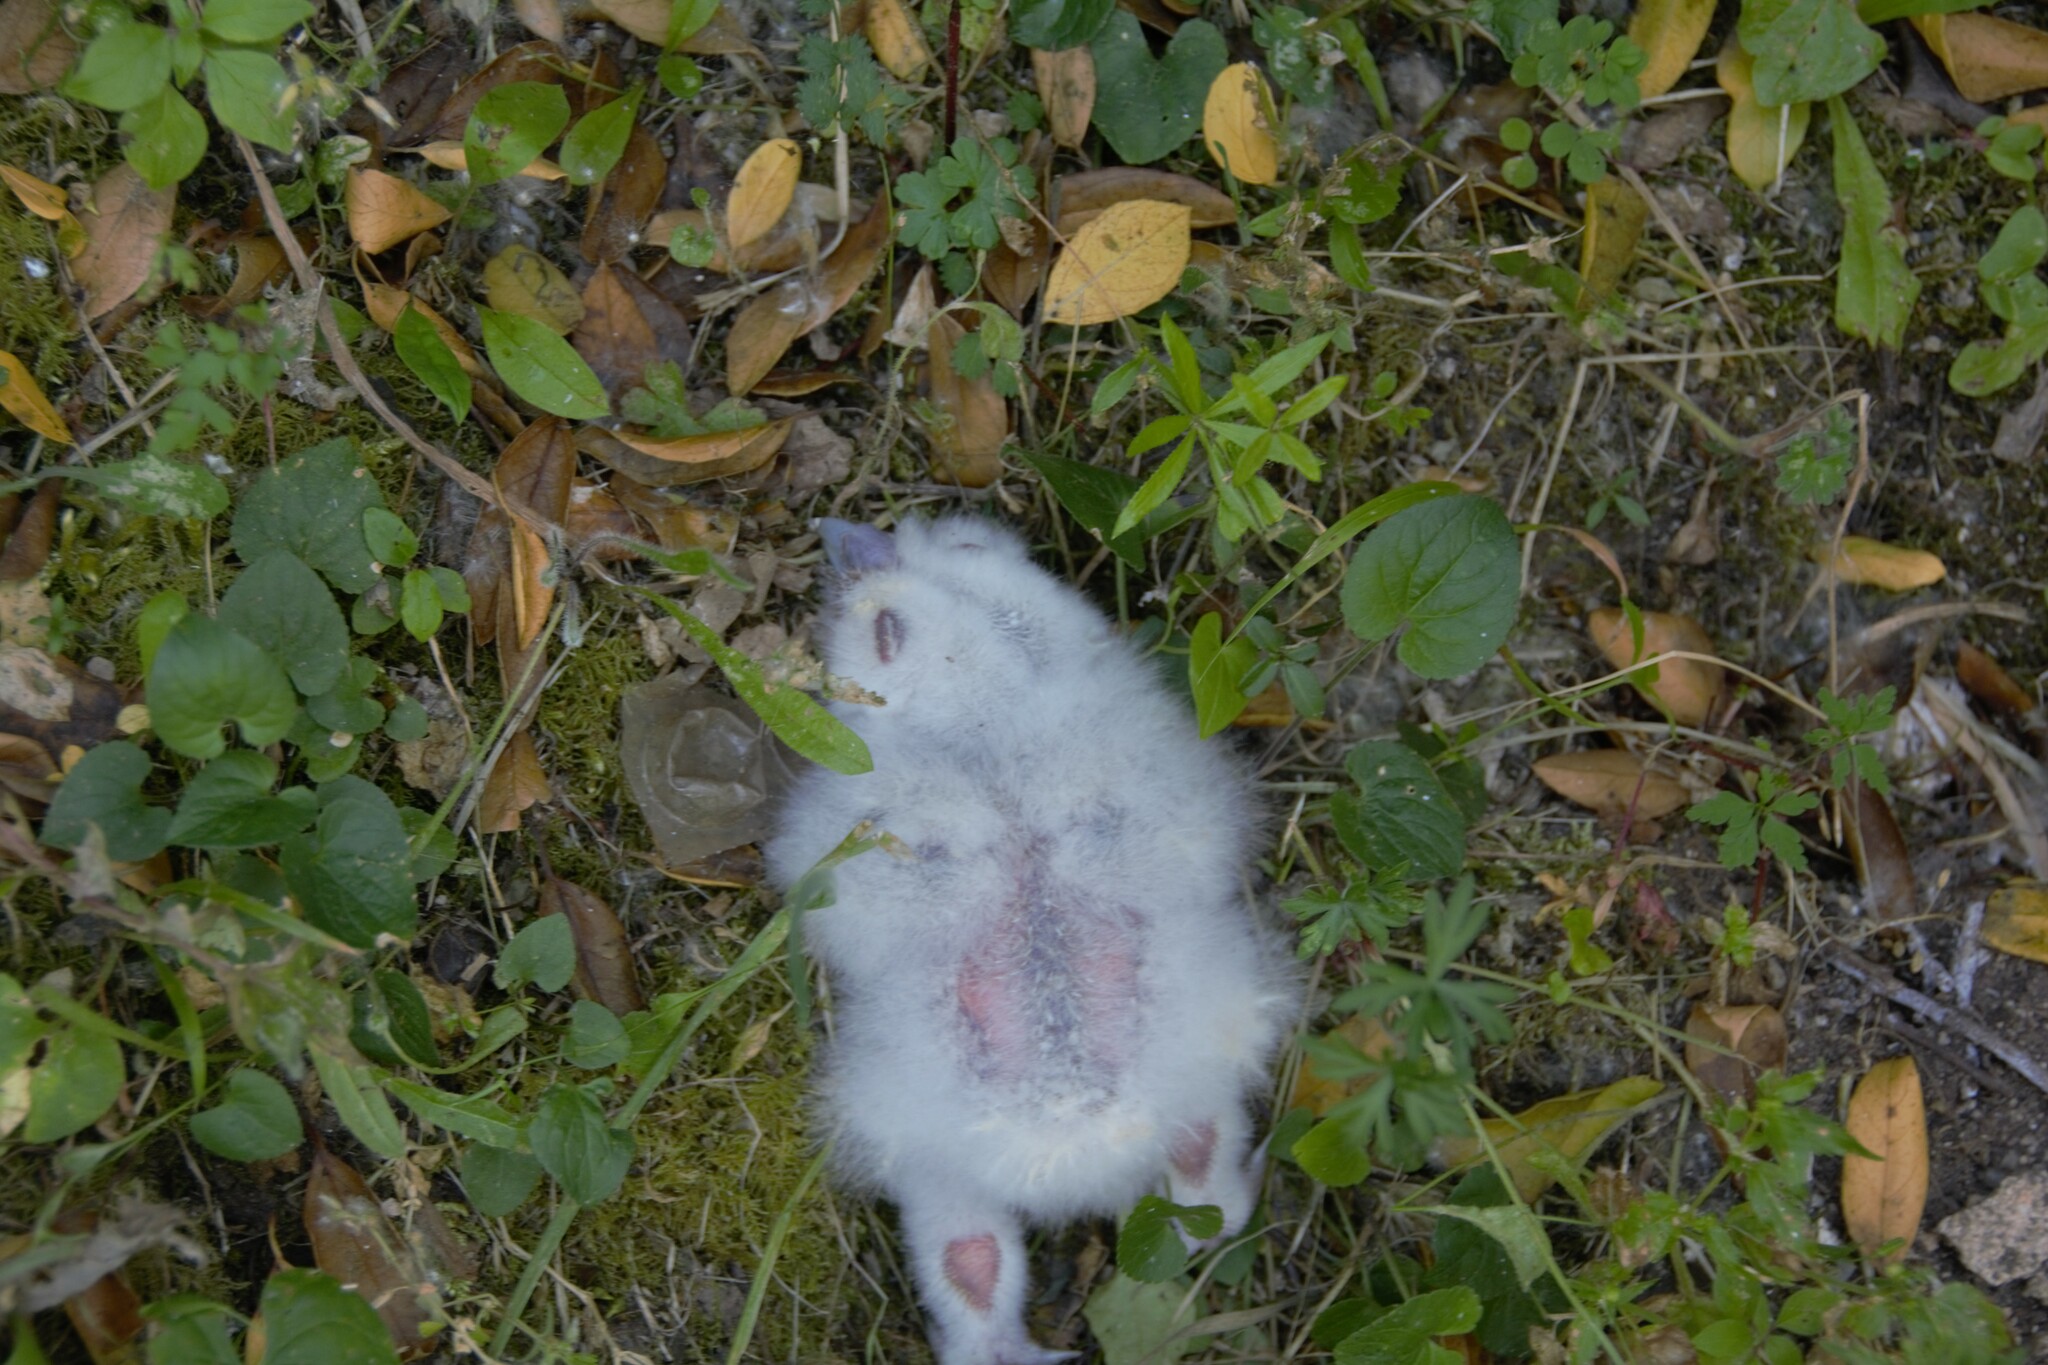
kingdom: Animalia
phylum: Chordata
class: Aves
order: Strigiformes
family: Strigidae
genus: Strix
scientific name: Strix aluco
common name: Tawny owl
